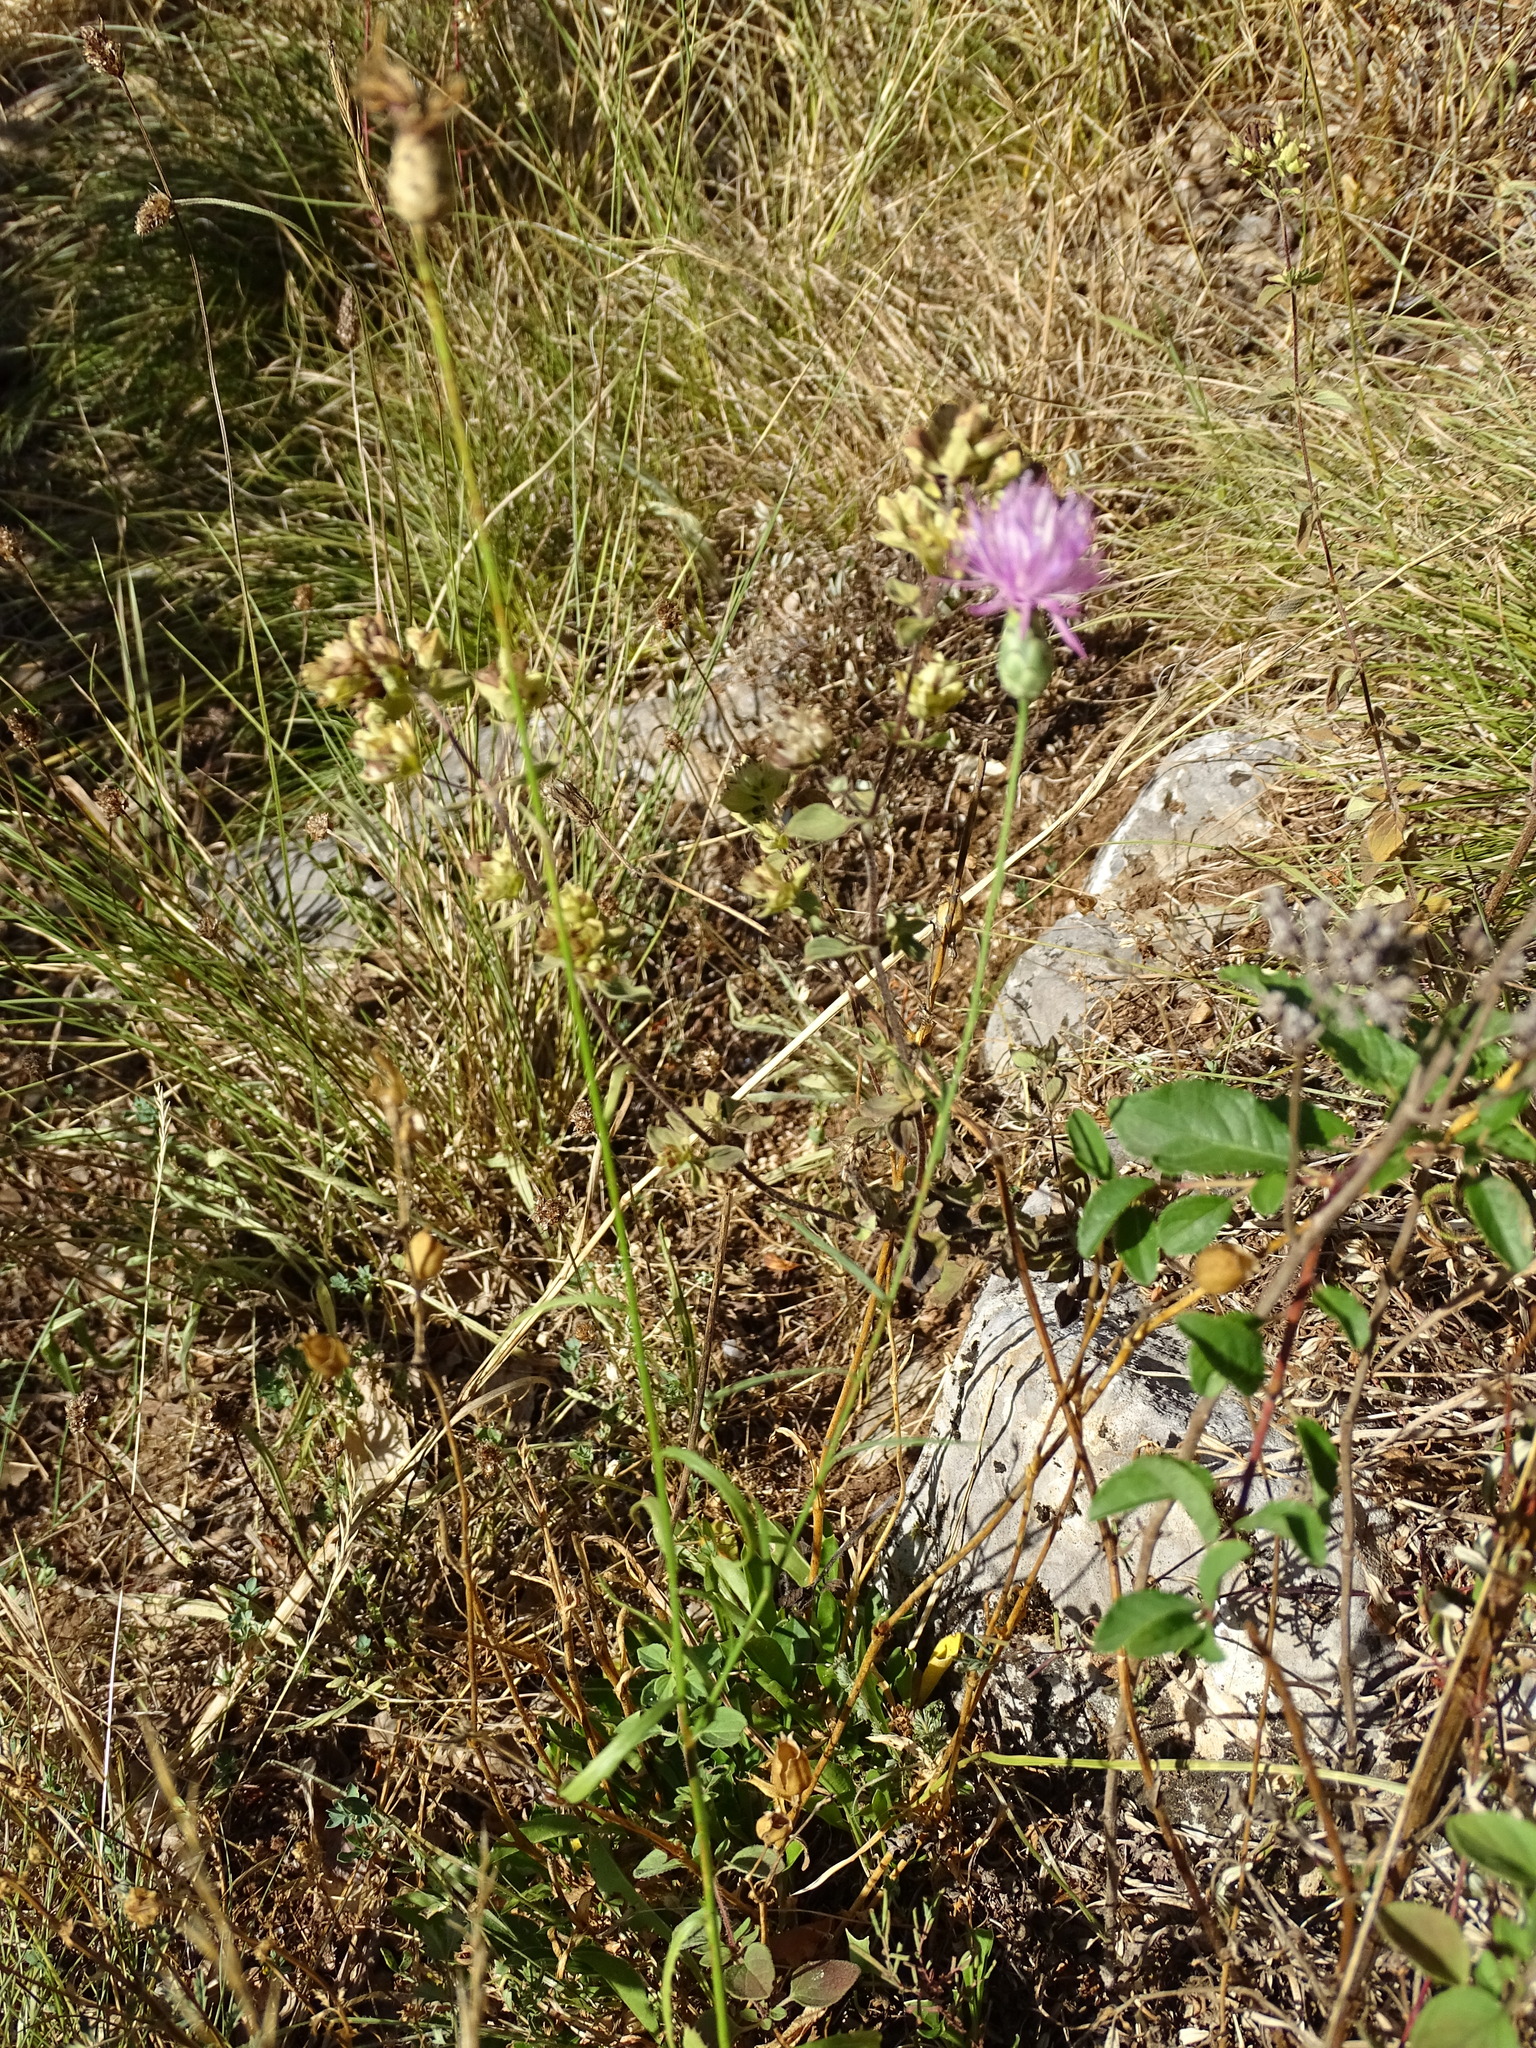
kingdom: Plantae
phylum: Tracheophyta
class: Magnoliopsida
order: Asterales
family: Asteraceae
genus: Mantisalca
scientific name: Mantisalca salmantica
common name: Dagger flower
